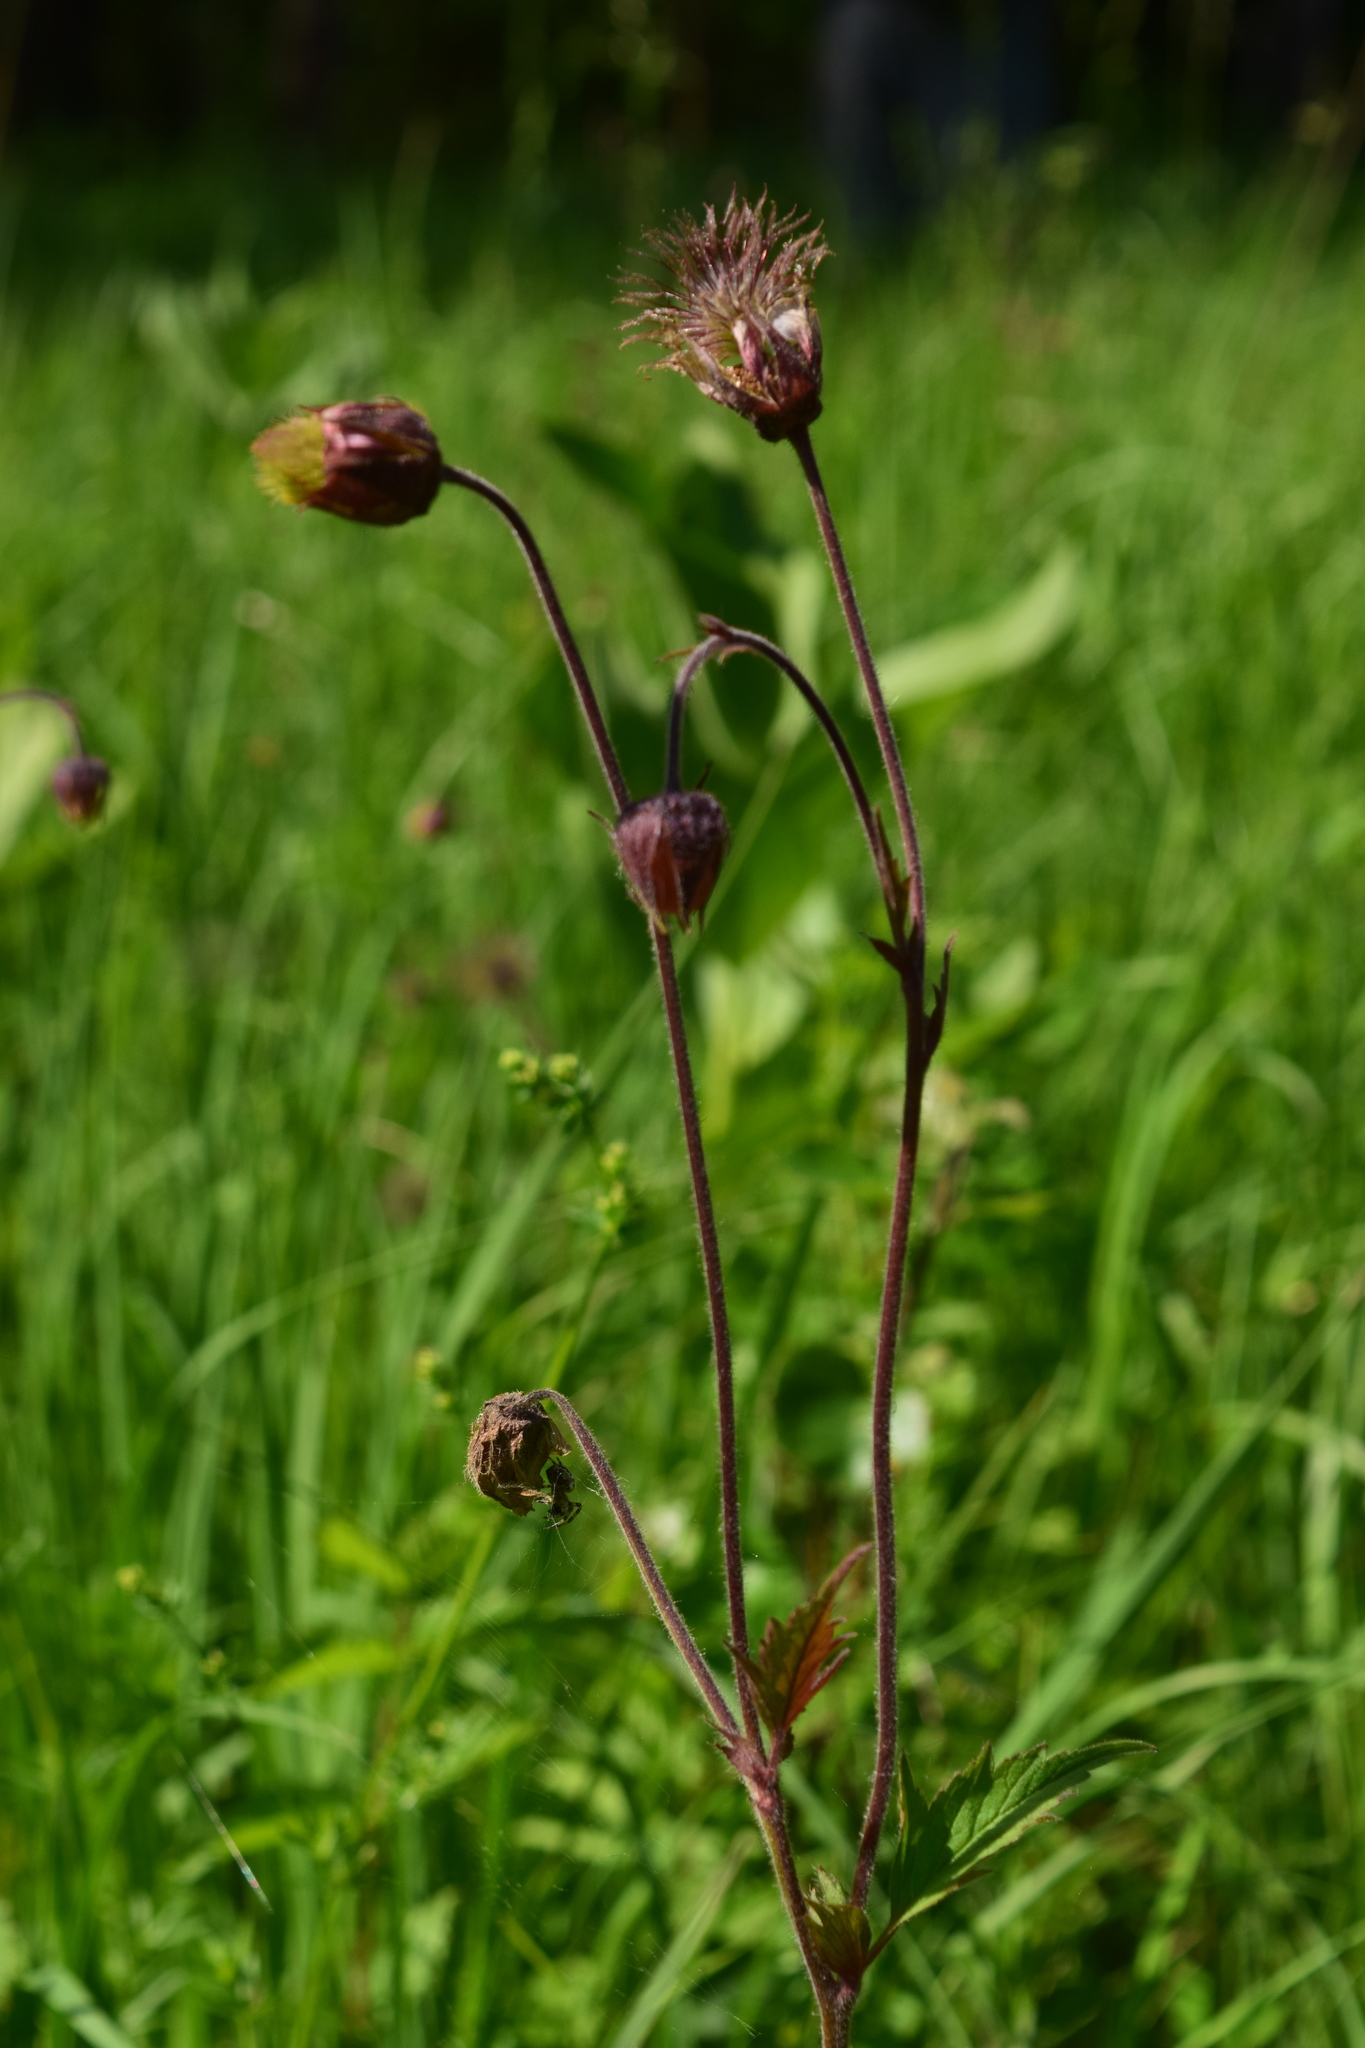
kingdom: Plantae
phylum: Tracheophyta
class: Magnoliopsida
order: Rosales
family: Rosaceae
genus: Geum
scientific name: Geum rivale
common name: Water avens
